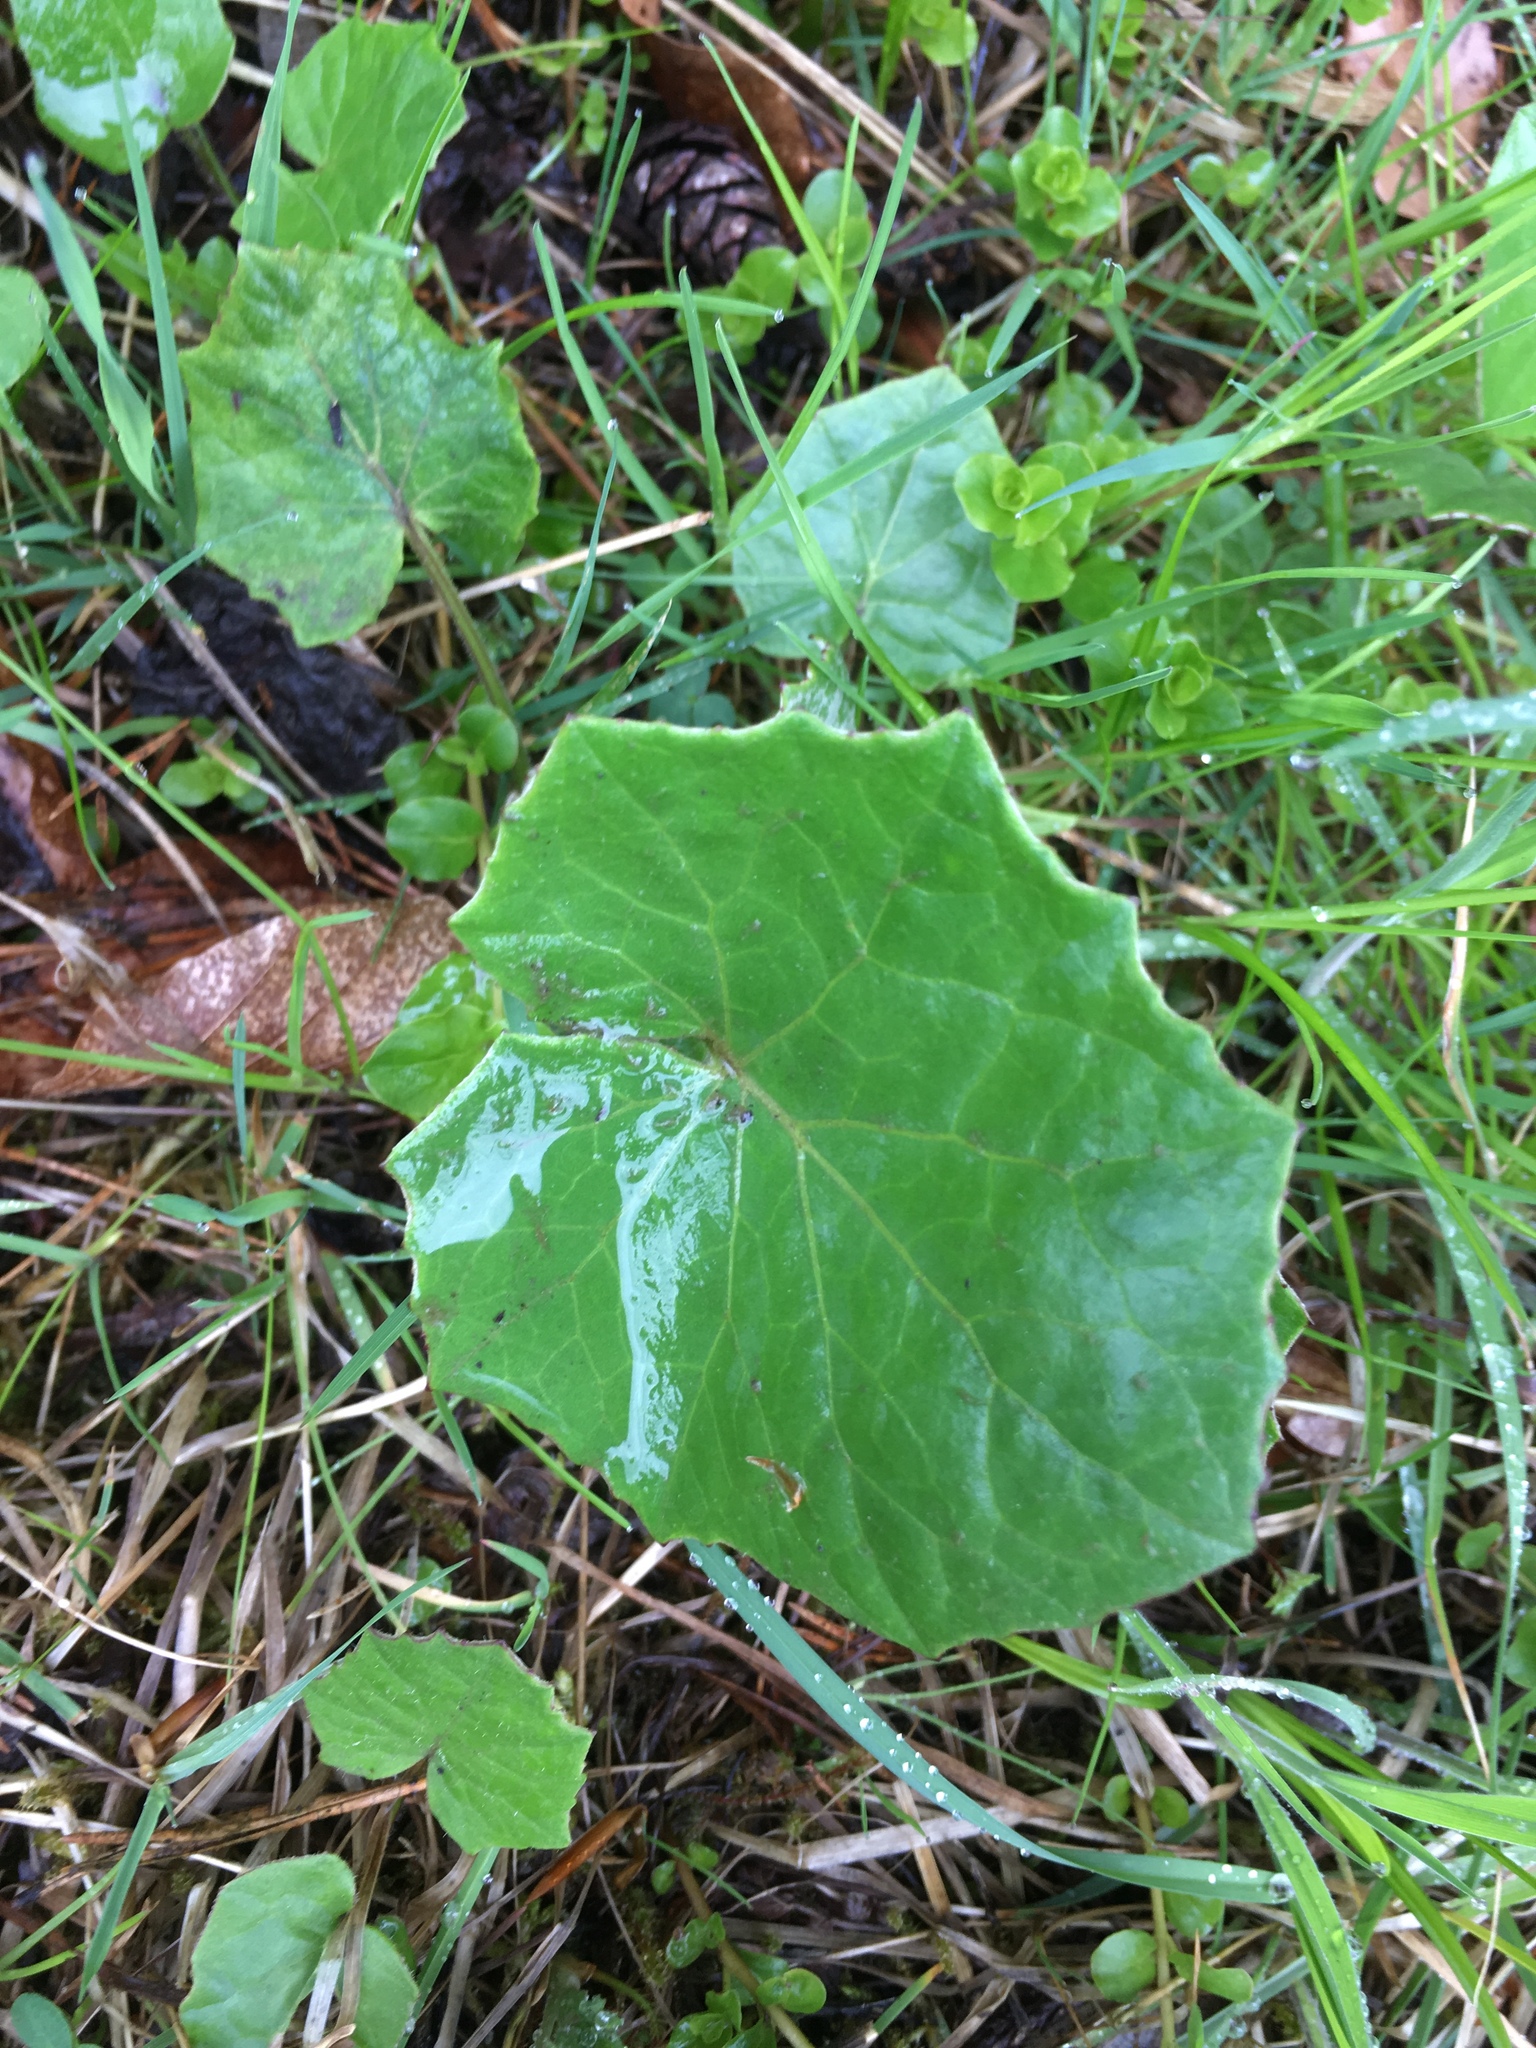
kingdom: Plantae
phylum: Tracheophyta
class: Magnoliopsida
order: Asterales
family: Asteraceae
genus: Tussilago
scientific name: Tussilago farfara
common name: Coltsfoot
